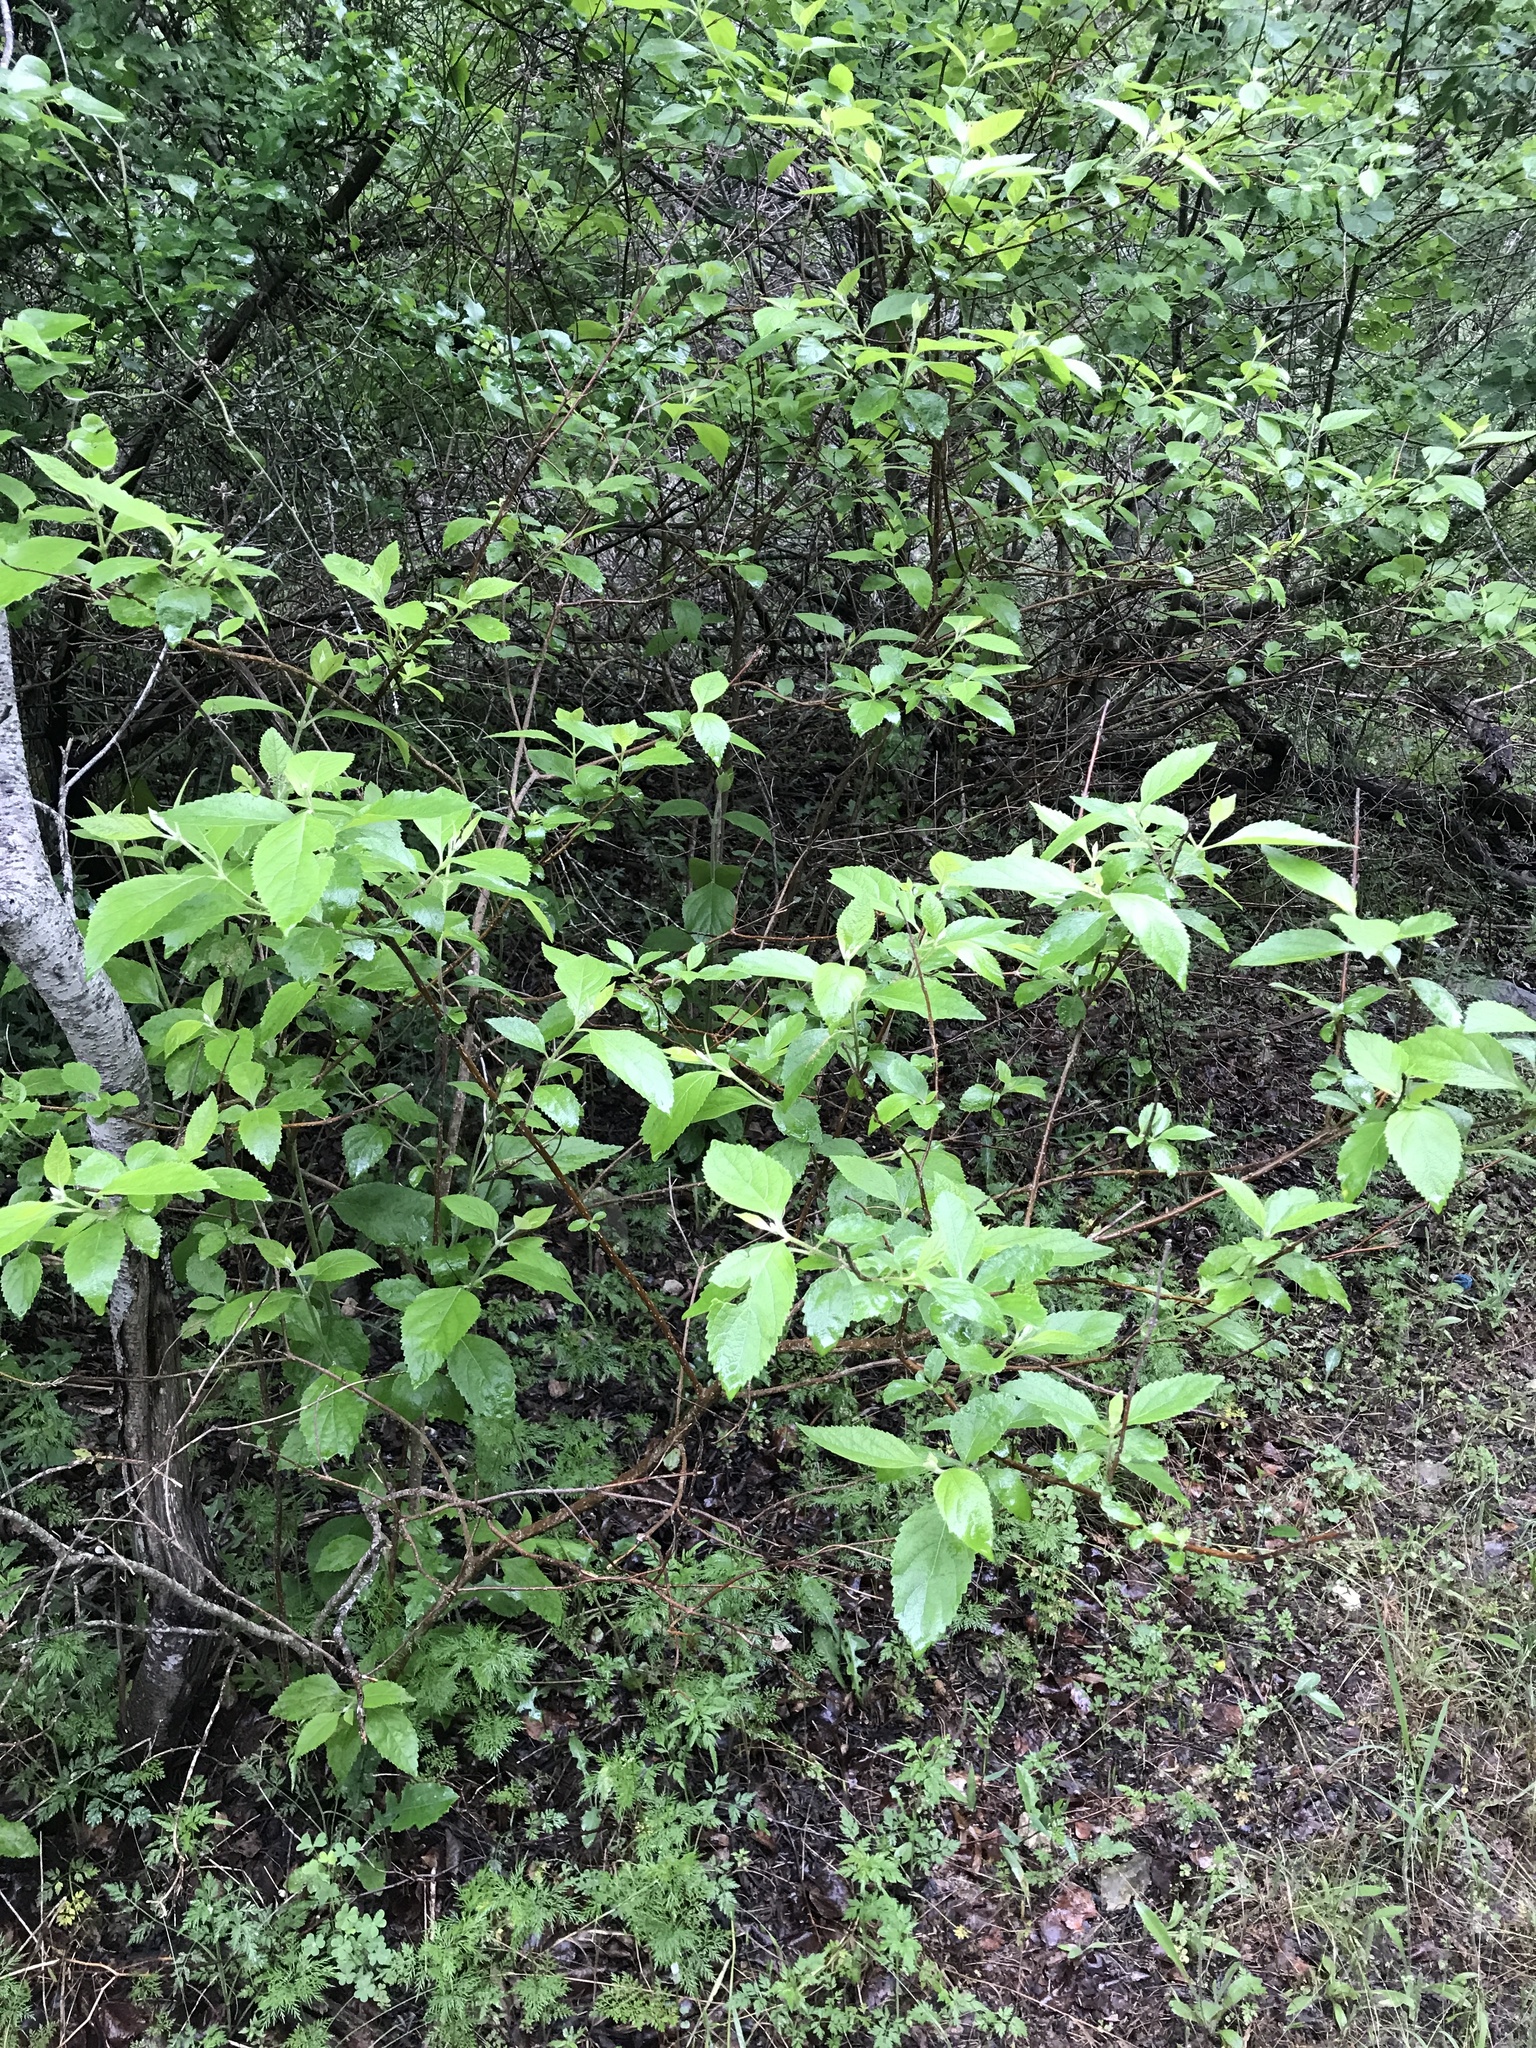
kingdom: Plantae
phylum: Tracheophyta
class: Magnoliopsida
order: Lamiales
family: Lamiaceae
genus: Callicarpa
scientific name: Callicarpa americana
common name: American beautyberry
